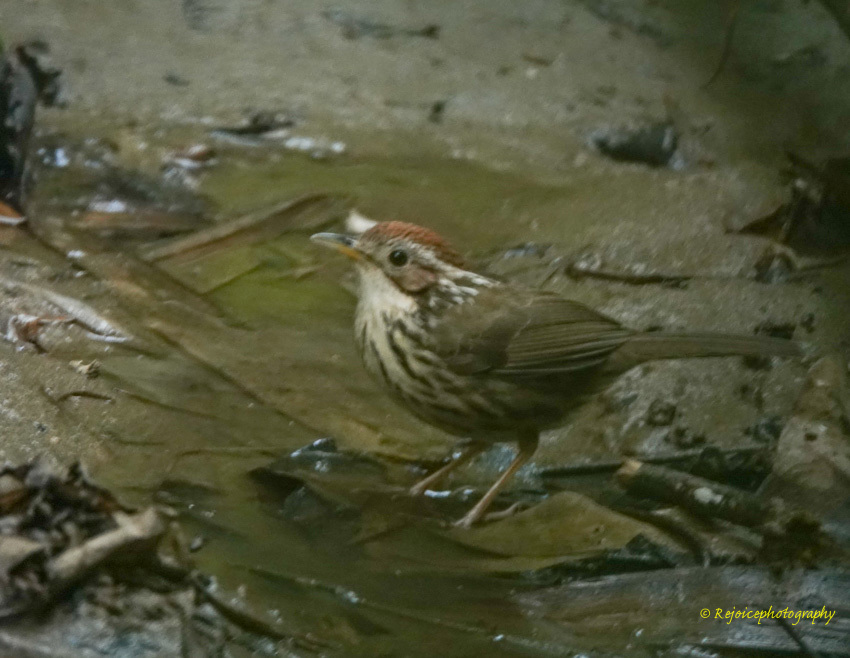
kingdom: Animalia
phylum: Chordata
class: Aves
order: Passeriformes
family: Pellorneidae
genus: Pellorneum
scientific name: Pellorneum ruficeps
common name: Puff-throated babbler
